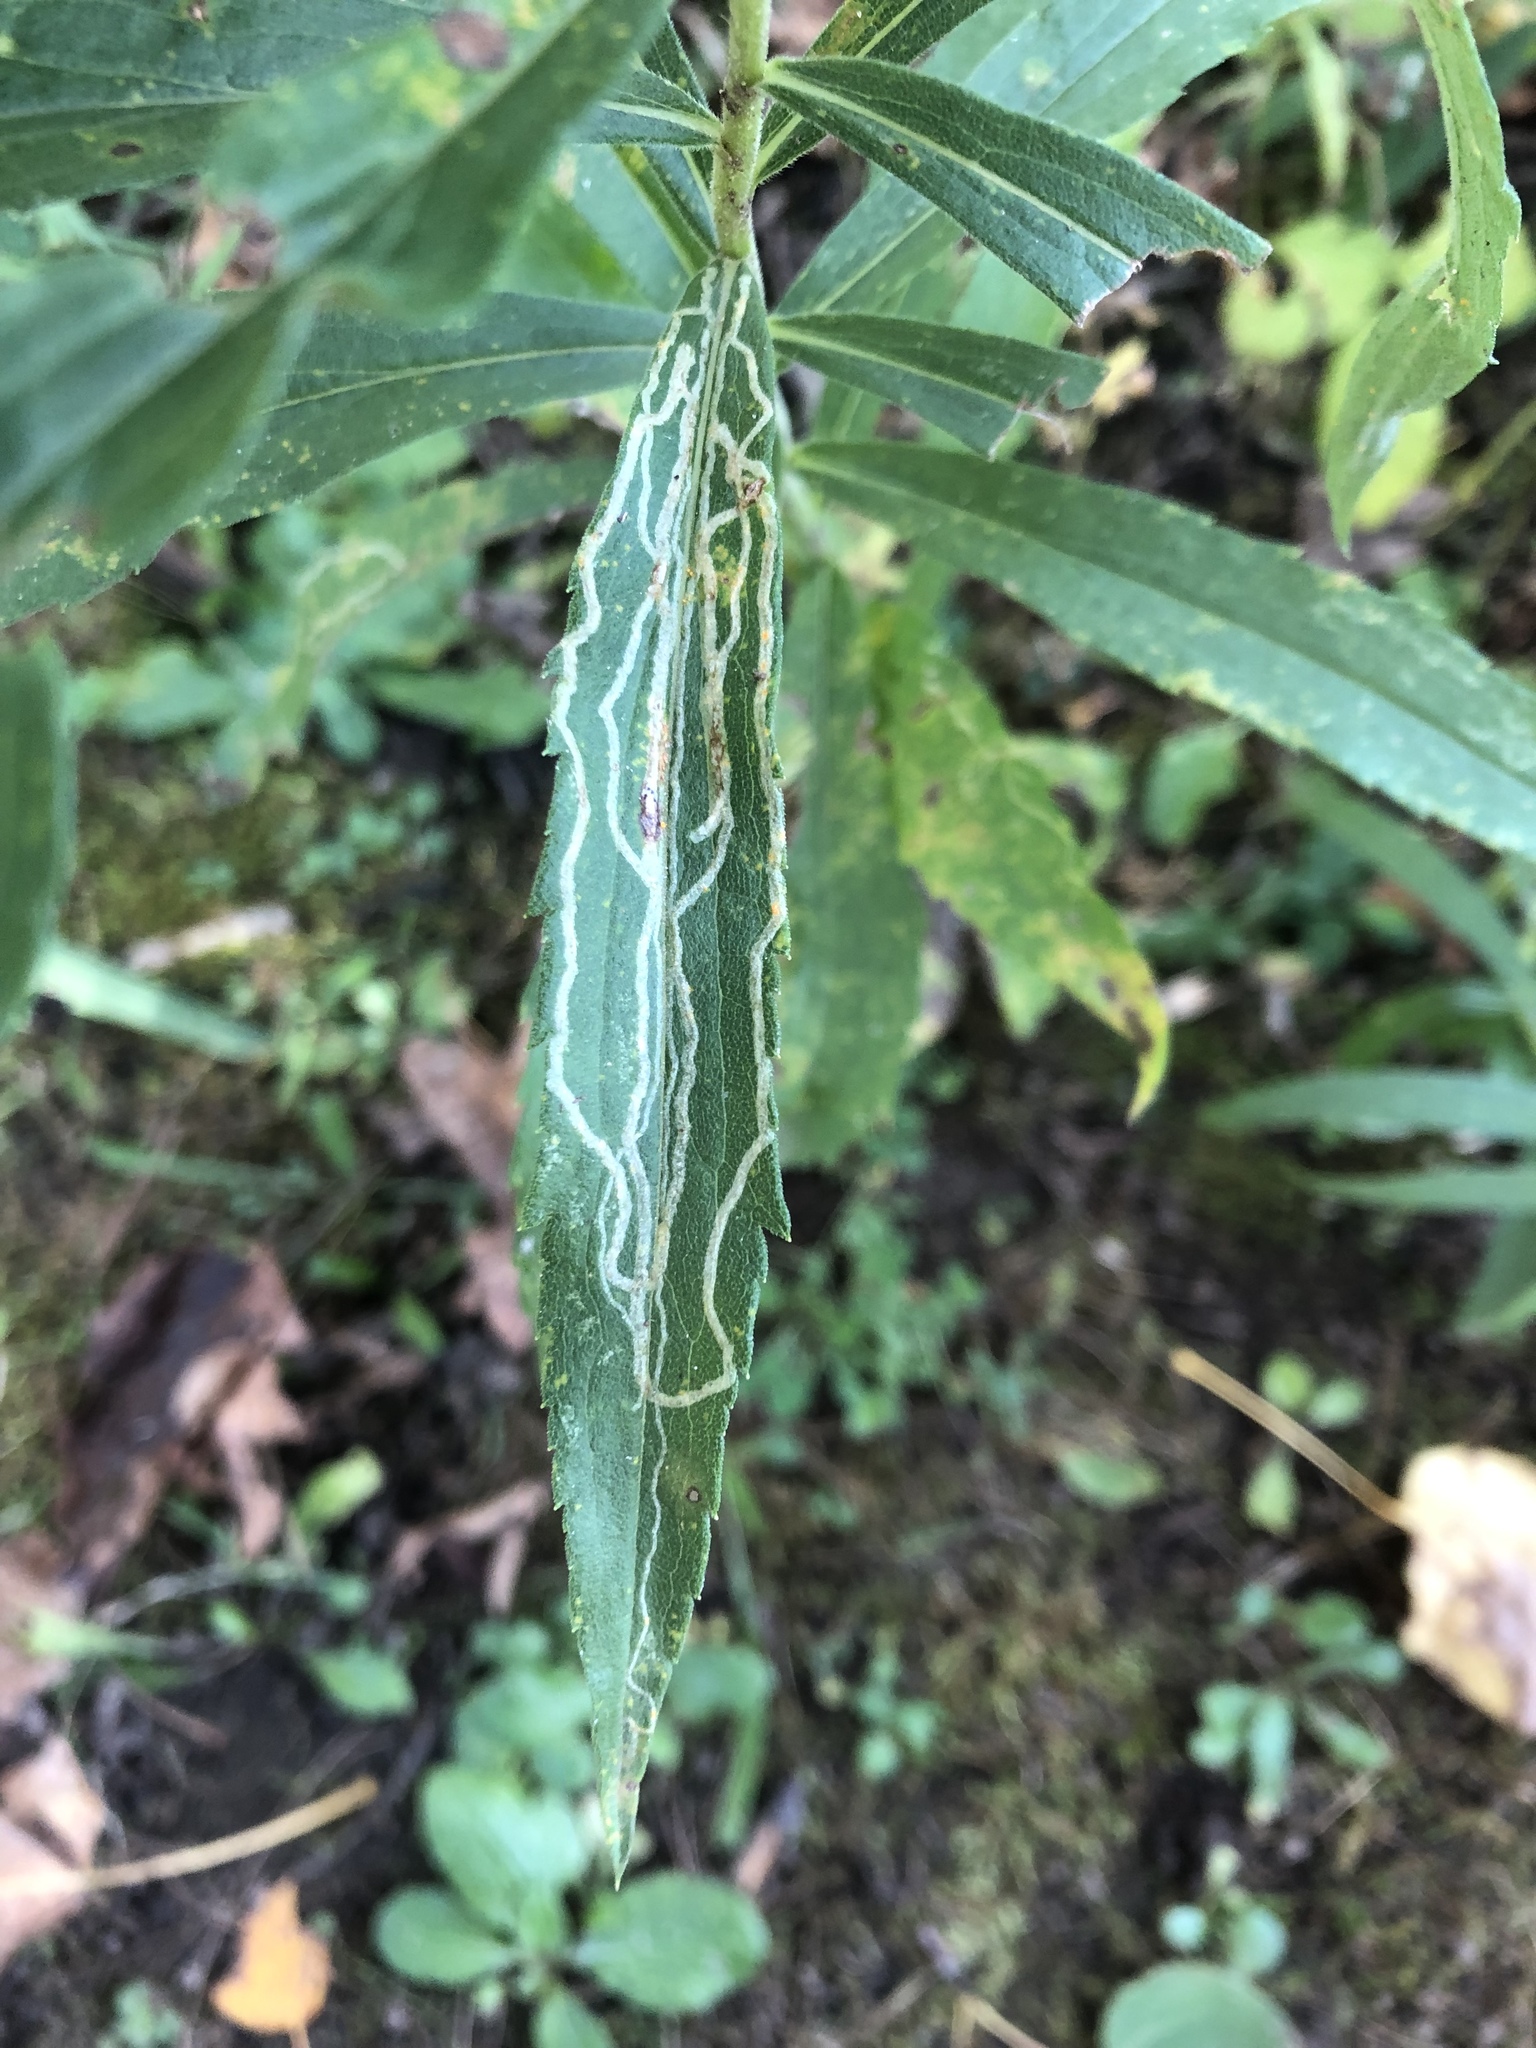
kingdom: Animalia
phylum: Arthropoda
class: Insecta
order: Diptera
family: Agromyzidae
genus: Ophiomyia
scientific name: Ophiomyia maura
